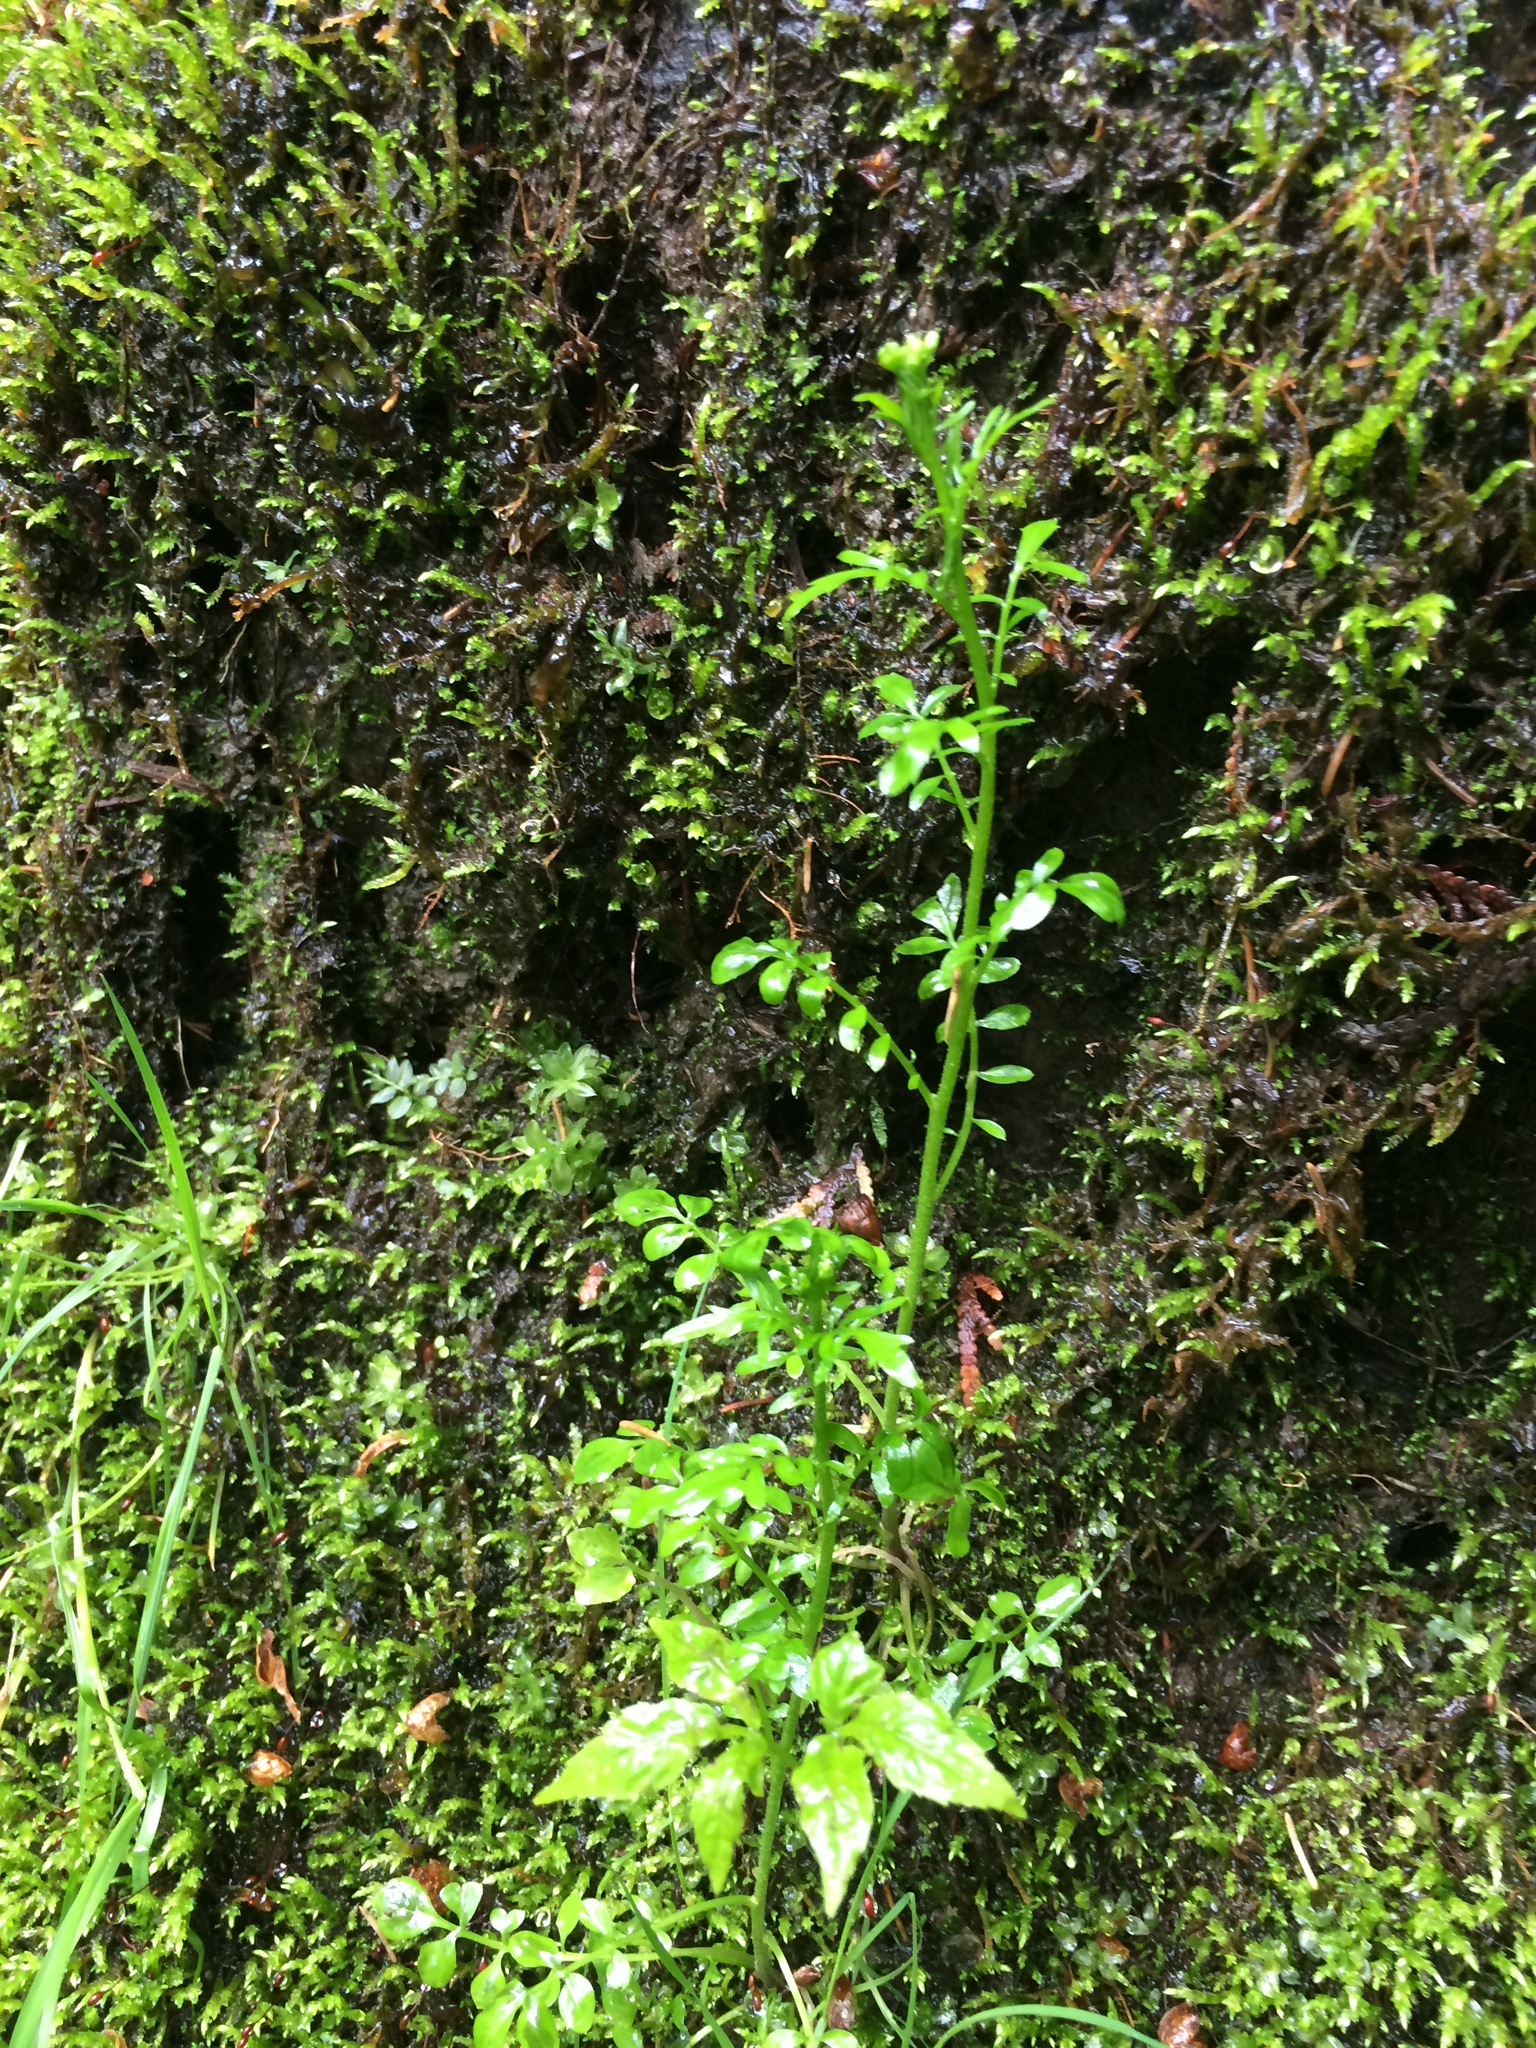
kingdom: Plantae
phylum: Tracheophyta
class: Magnoliopsida
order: Brassicales
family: Brassicaceae
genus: Cardamine
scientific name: Cardamine pensylvanica
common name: Pennsylvania bittercress
